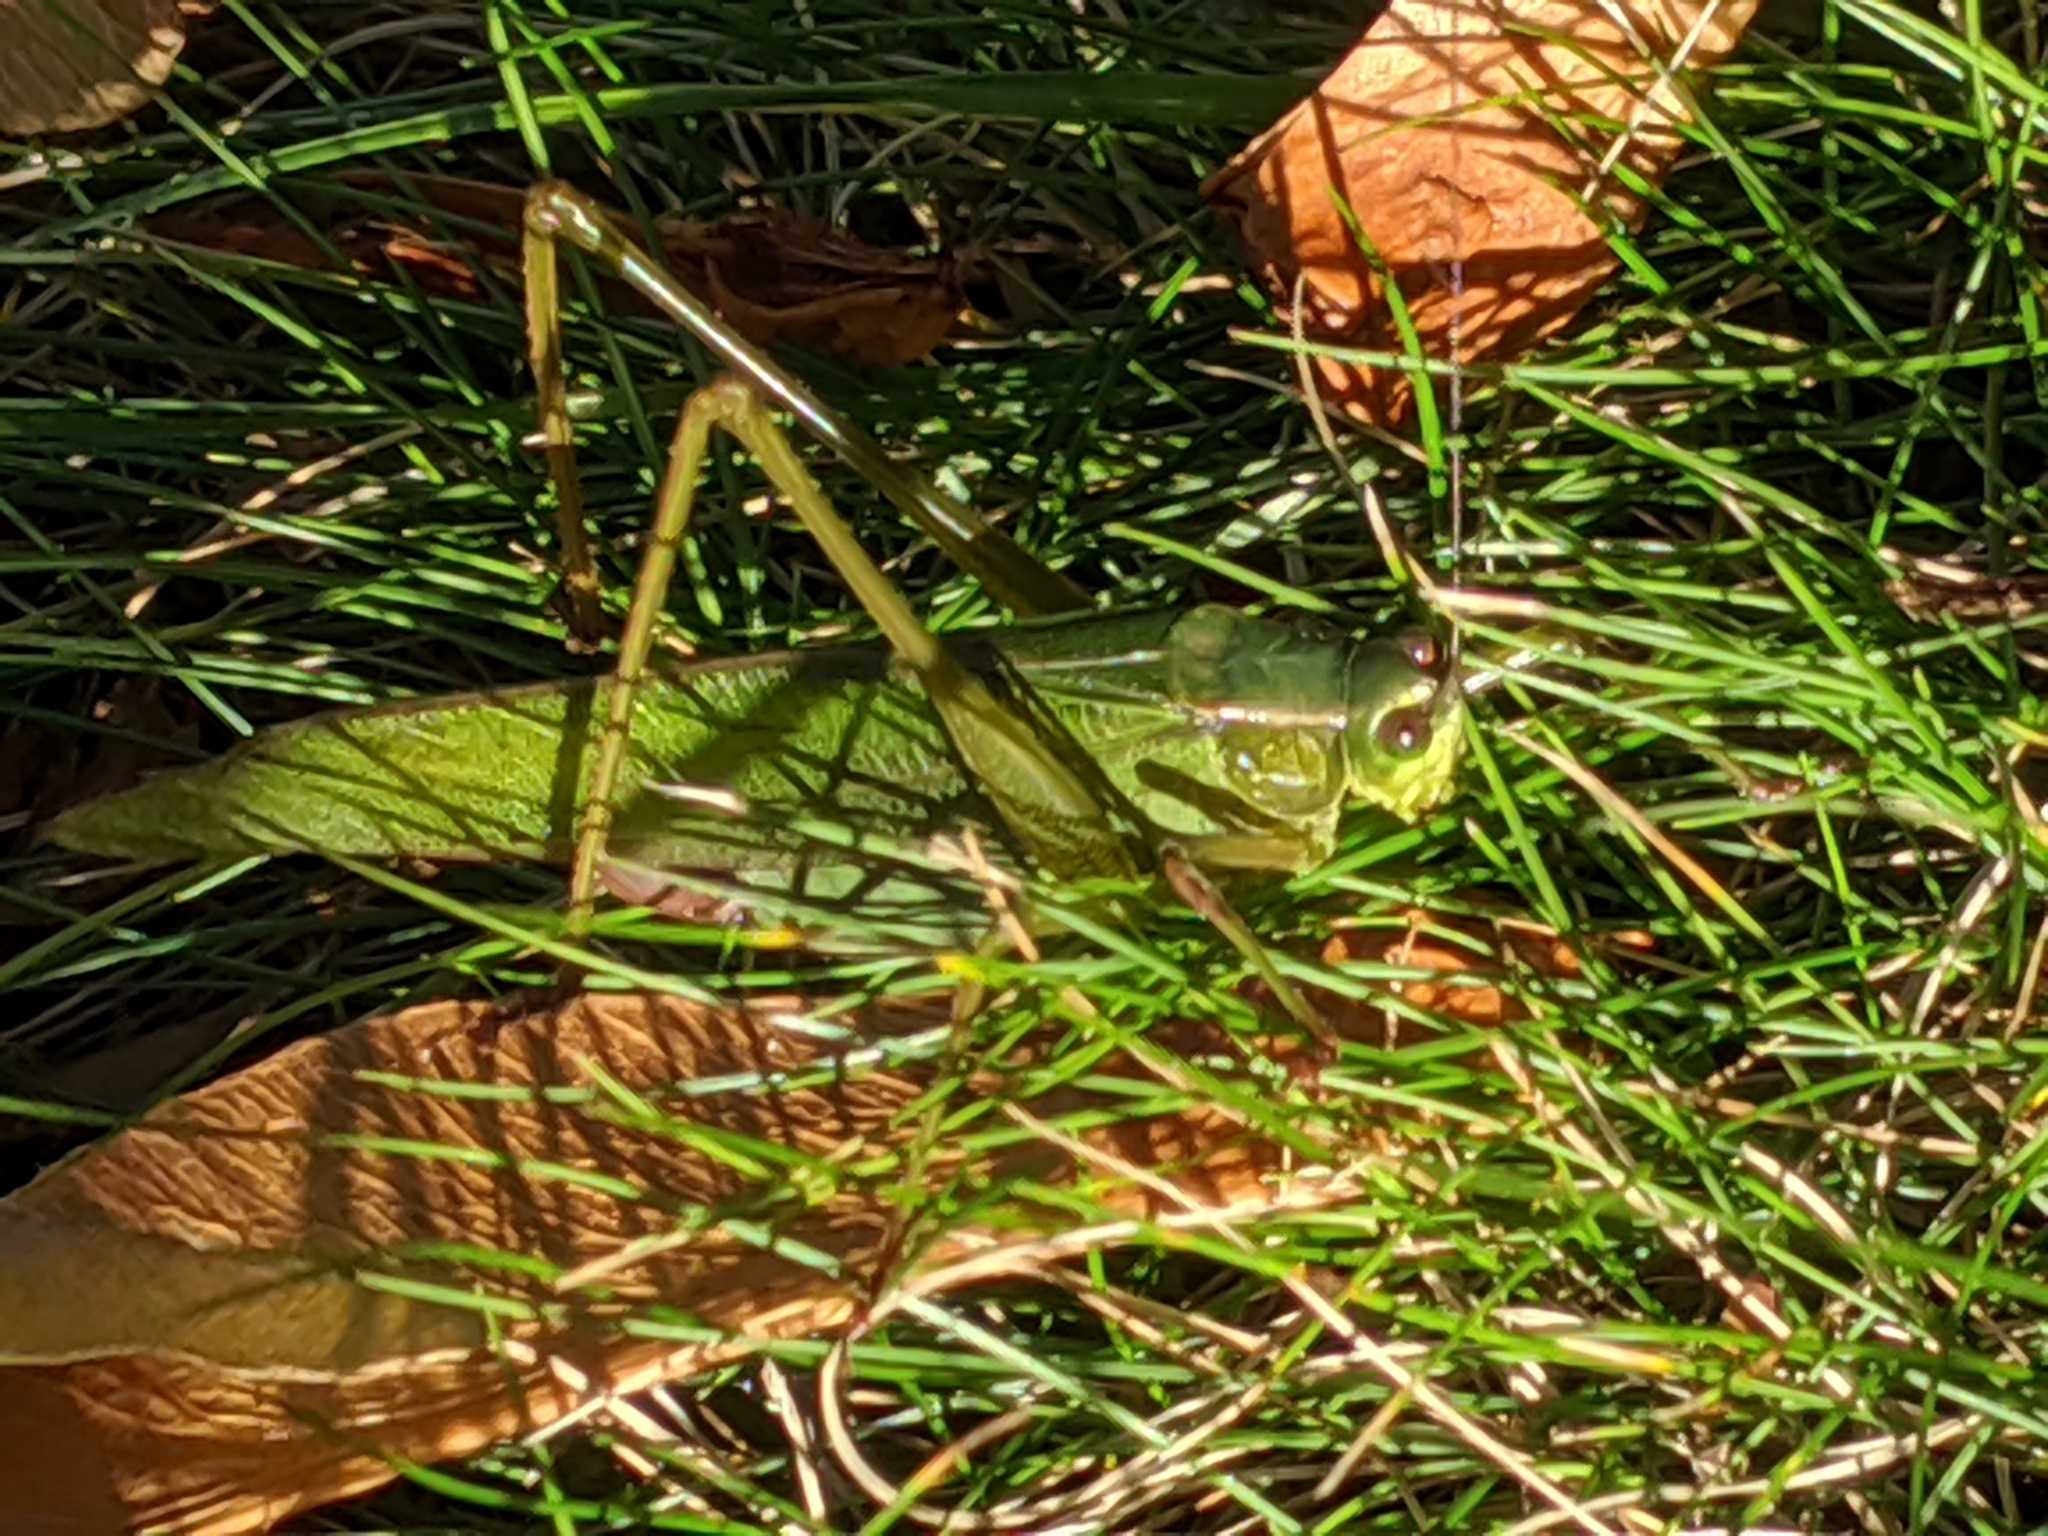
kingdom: Animalia
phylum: Arthropoda
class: Insecta
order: Orthoptera
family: Tettigoniidae
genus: Scudderia
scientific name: Scudderia furcata
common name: Fork-tailed bush katydid
